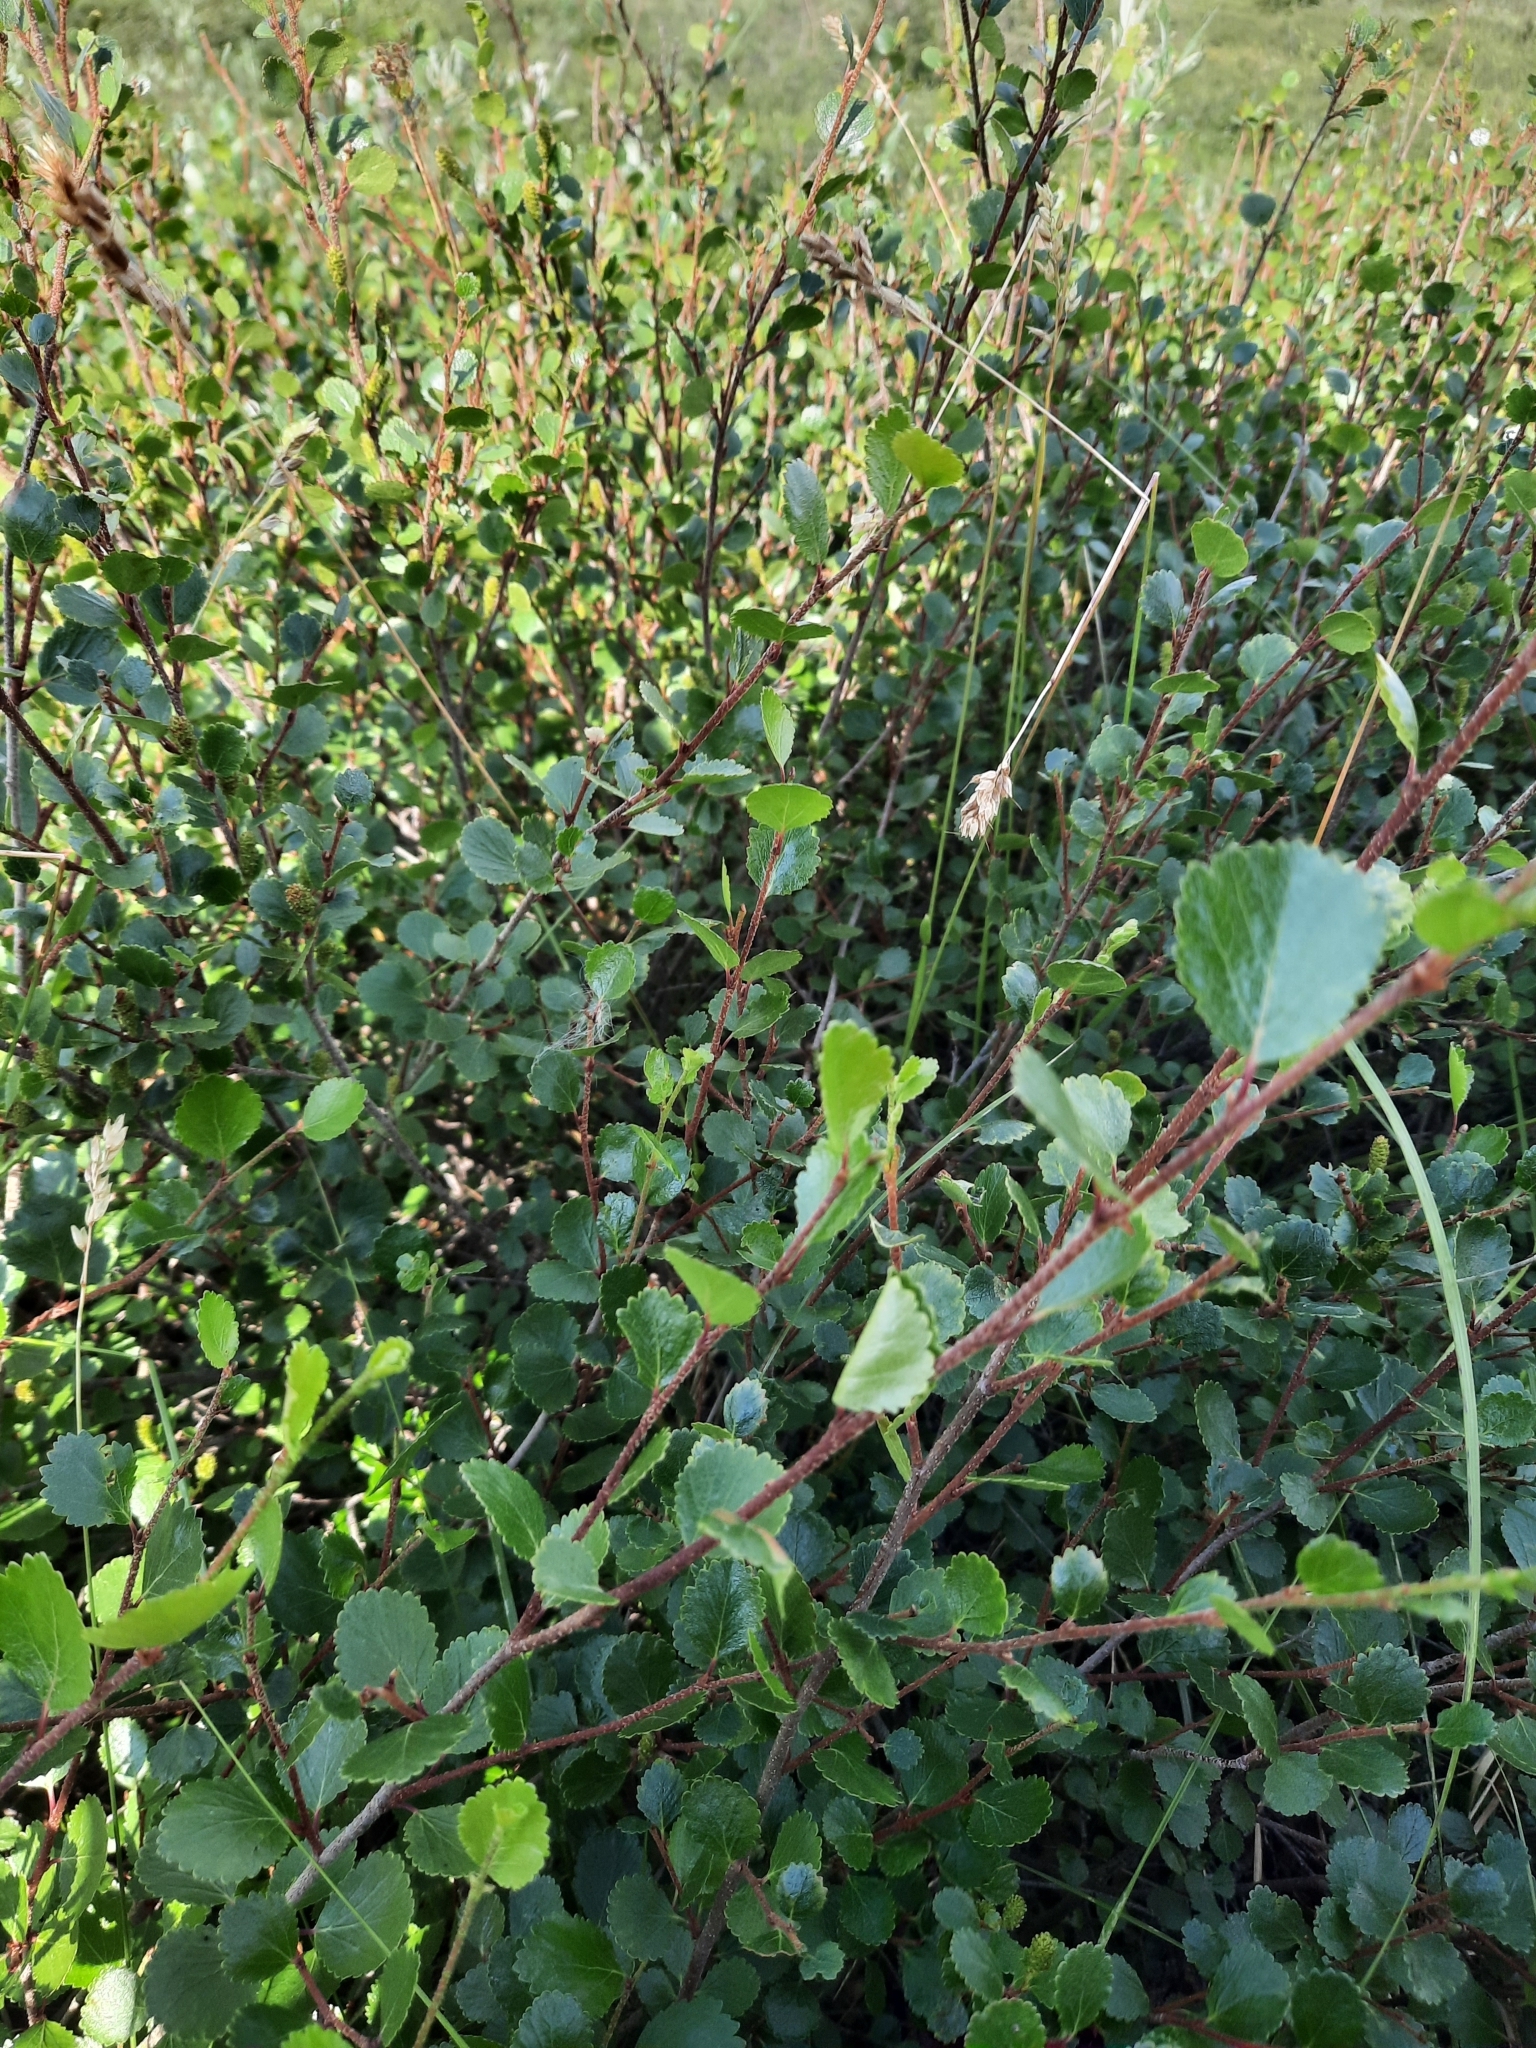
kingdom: Plantae
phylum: Tracheophyta
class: Magnoliopsida
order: Fagales
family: Betulaceae
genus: Betula
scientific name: Betula glandulosa
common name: Dwarf birch
